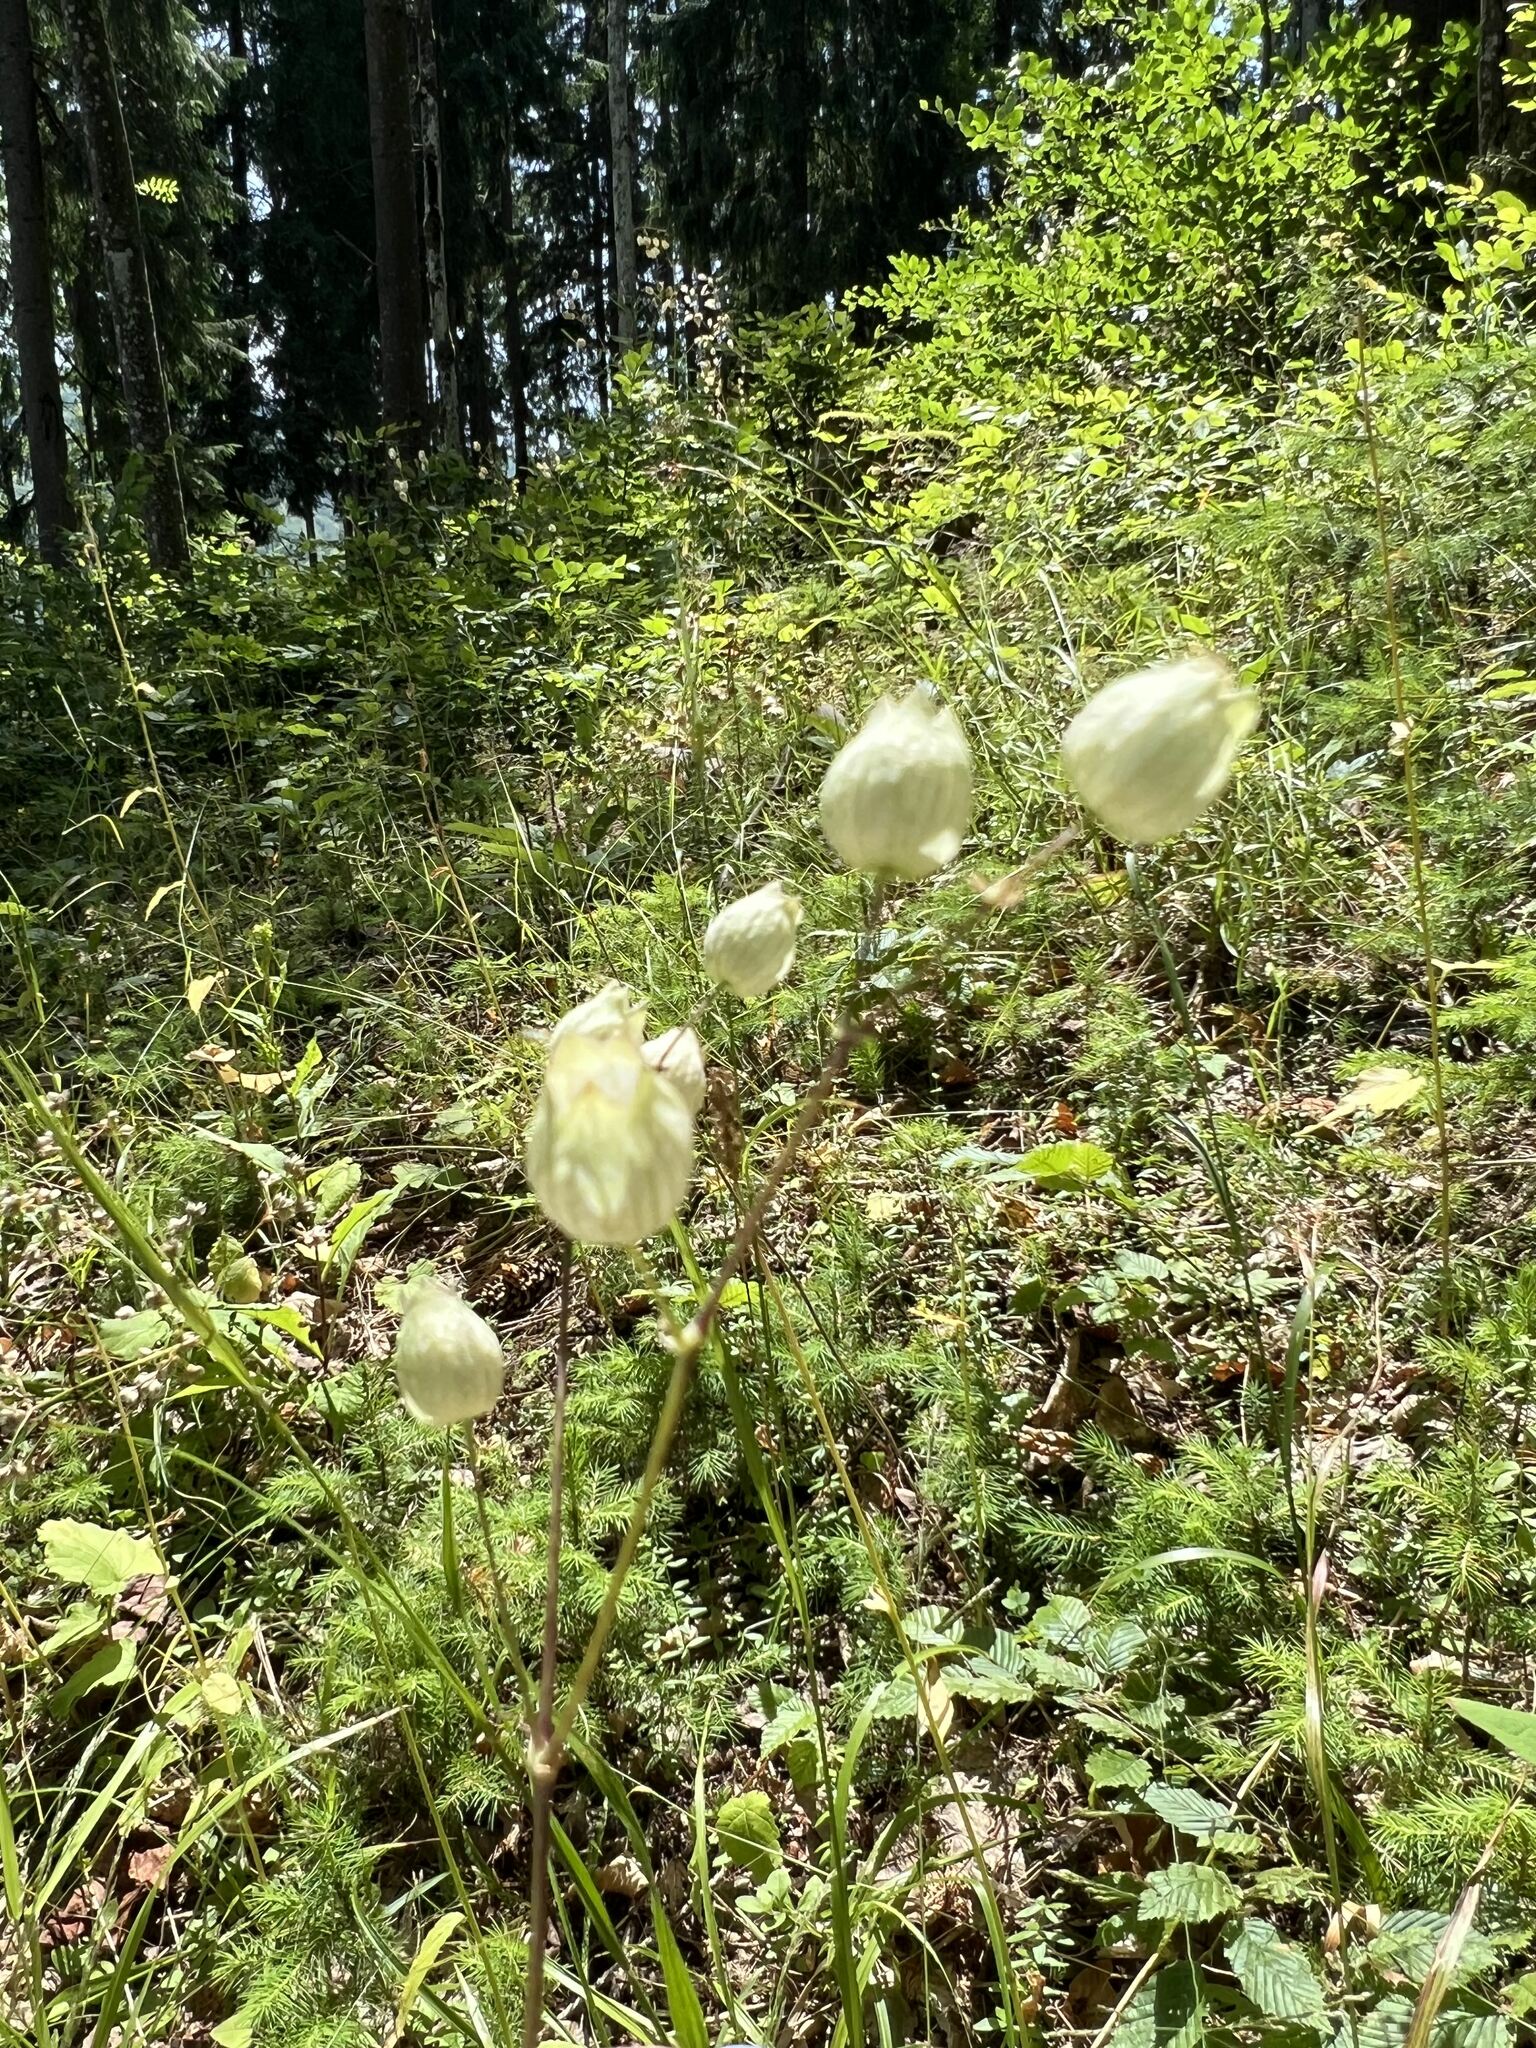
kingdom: Plantae
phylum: Tracheophyta
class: Magnoliopsida
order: Caryophyllales
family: Caryophyllaceae
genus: Silene
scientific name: Silene vulgaris
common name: Bladder campion
